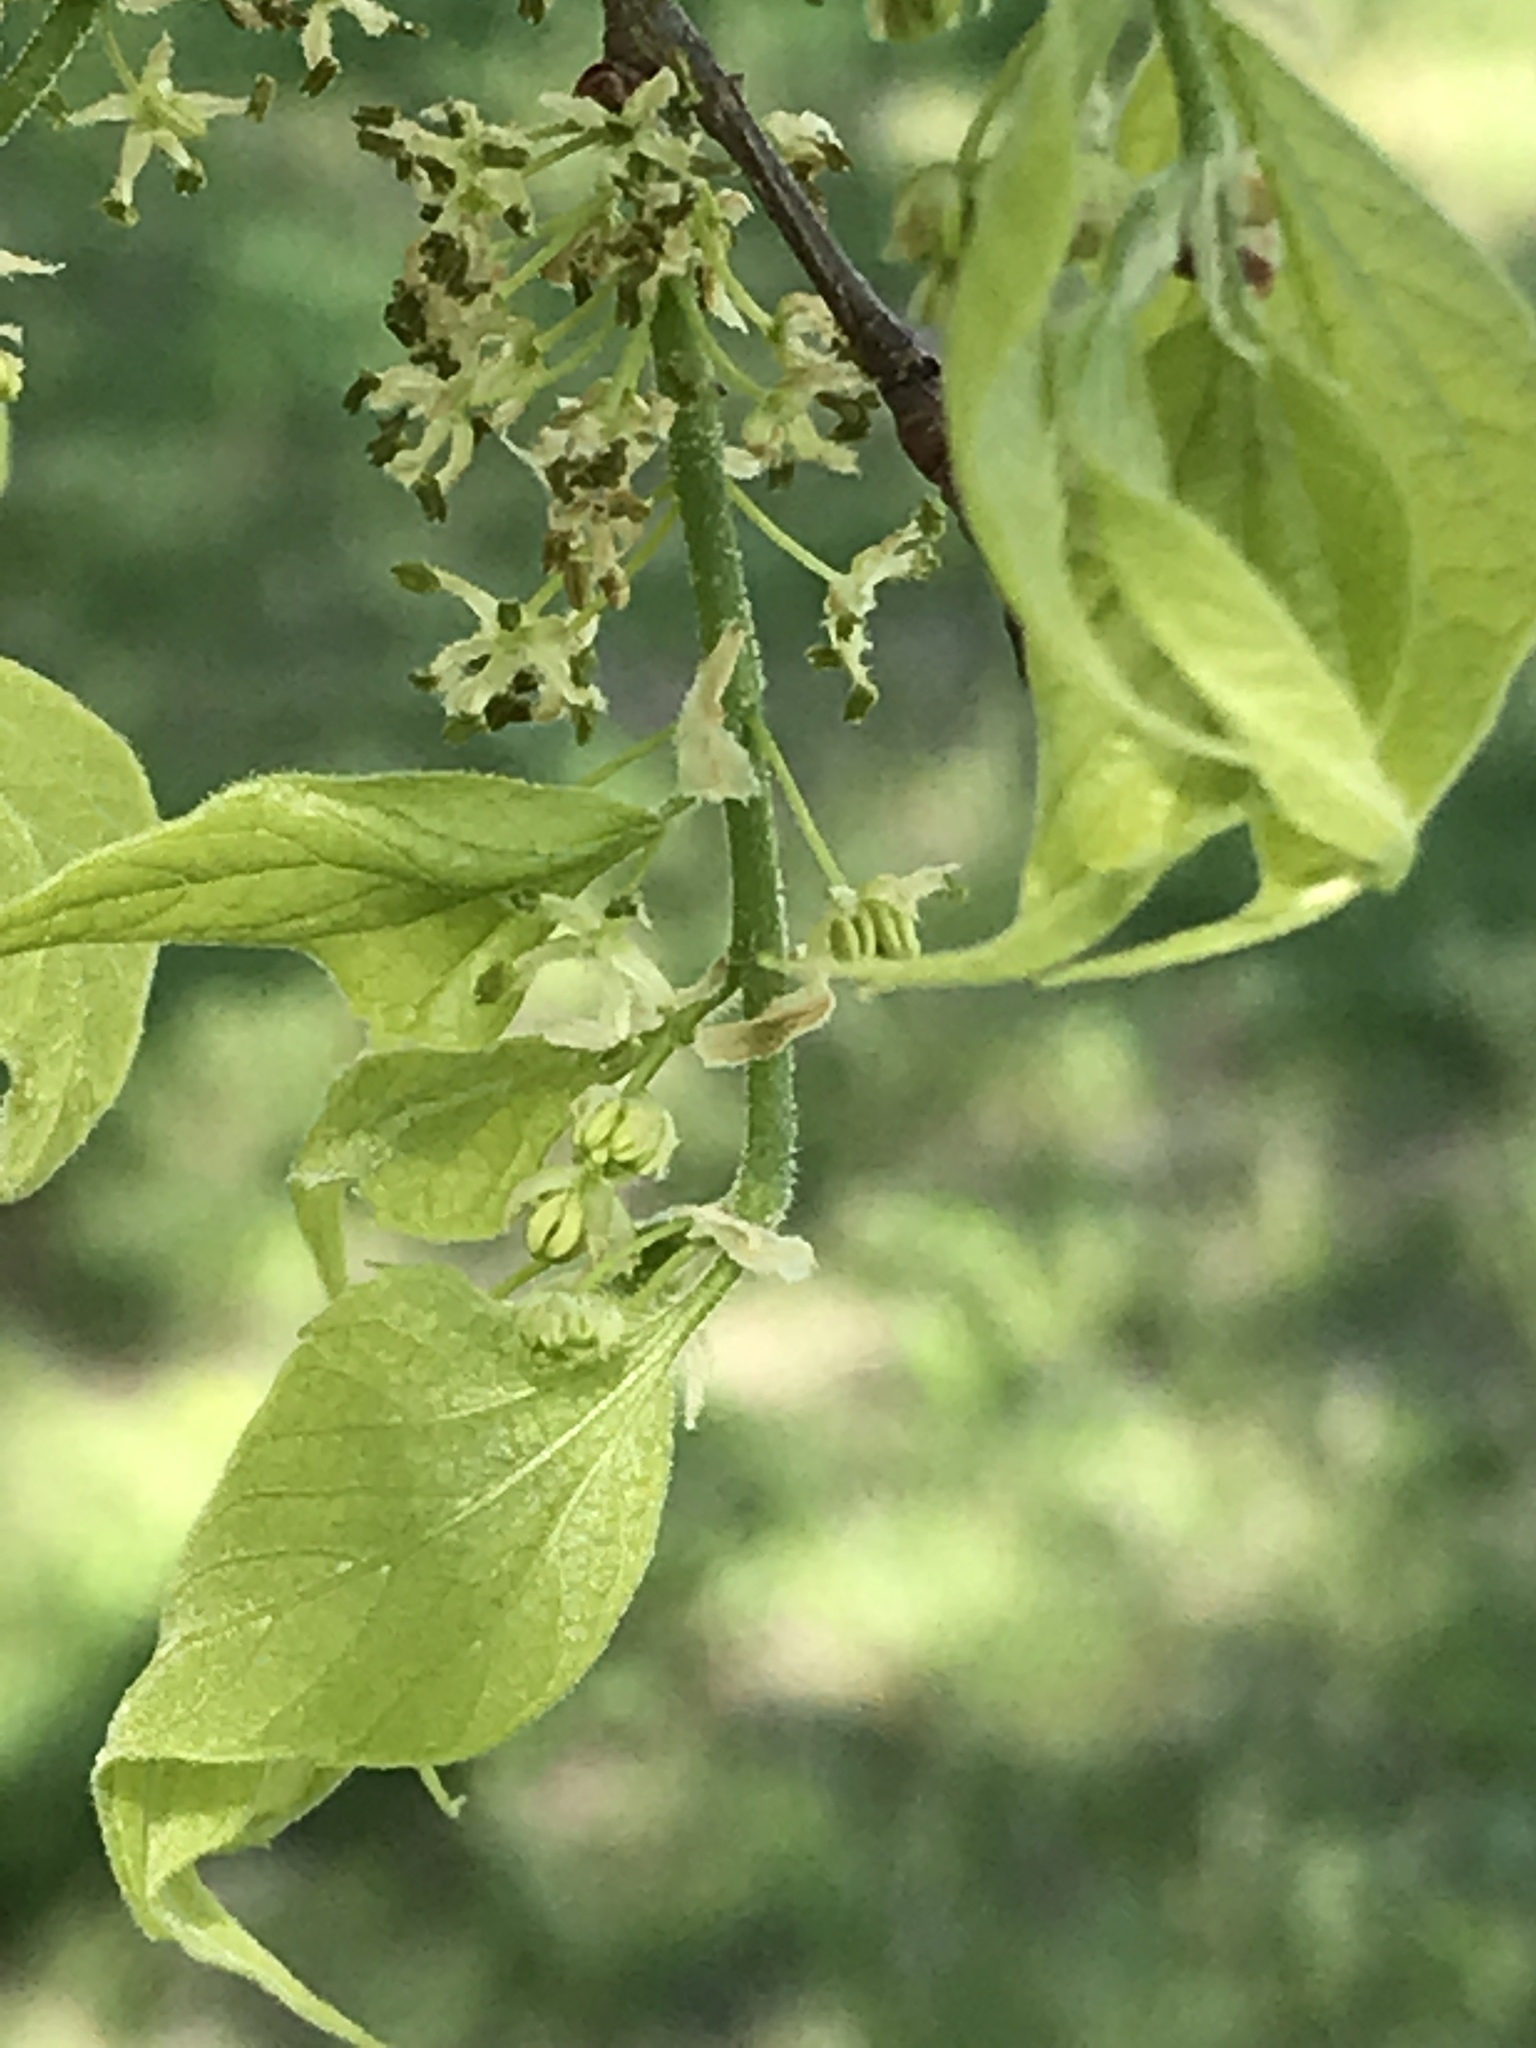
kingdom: Plantae
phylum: Tracheophyta
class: Magnoliopsida
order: Rosales
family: Cannabaceae
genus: Celtis
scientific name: Celtis laevigata
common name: Sugarberry
